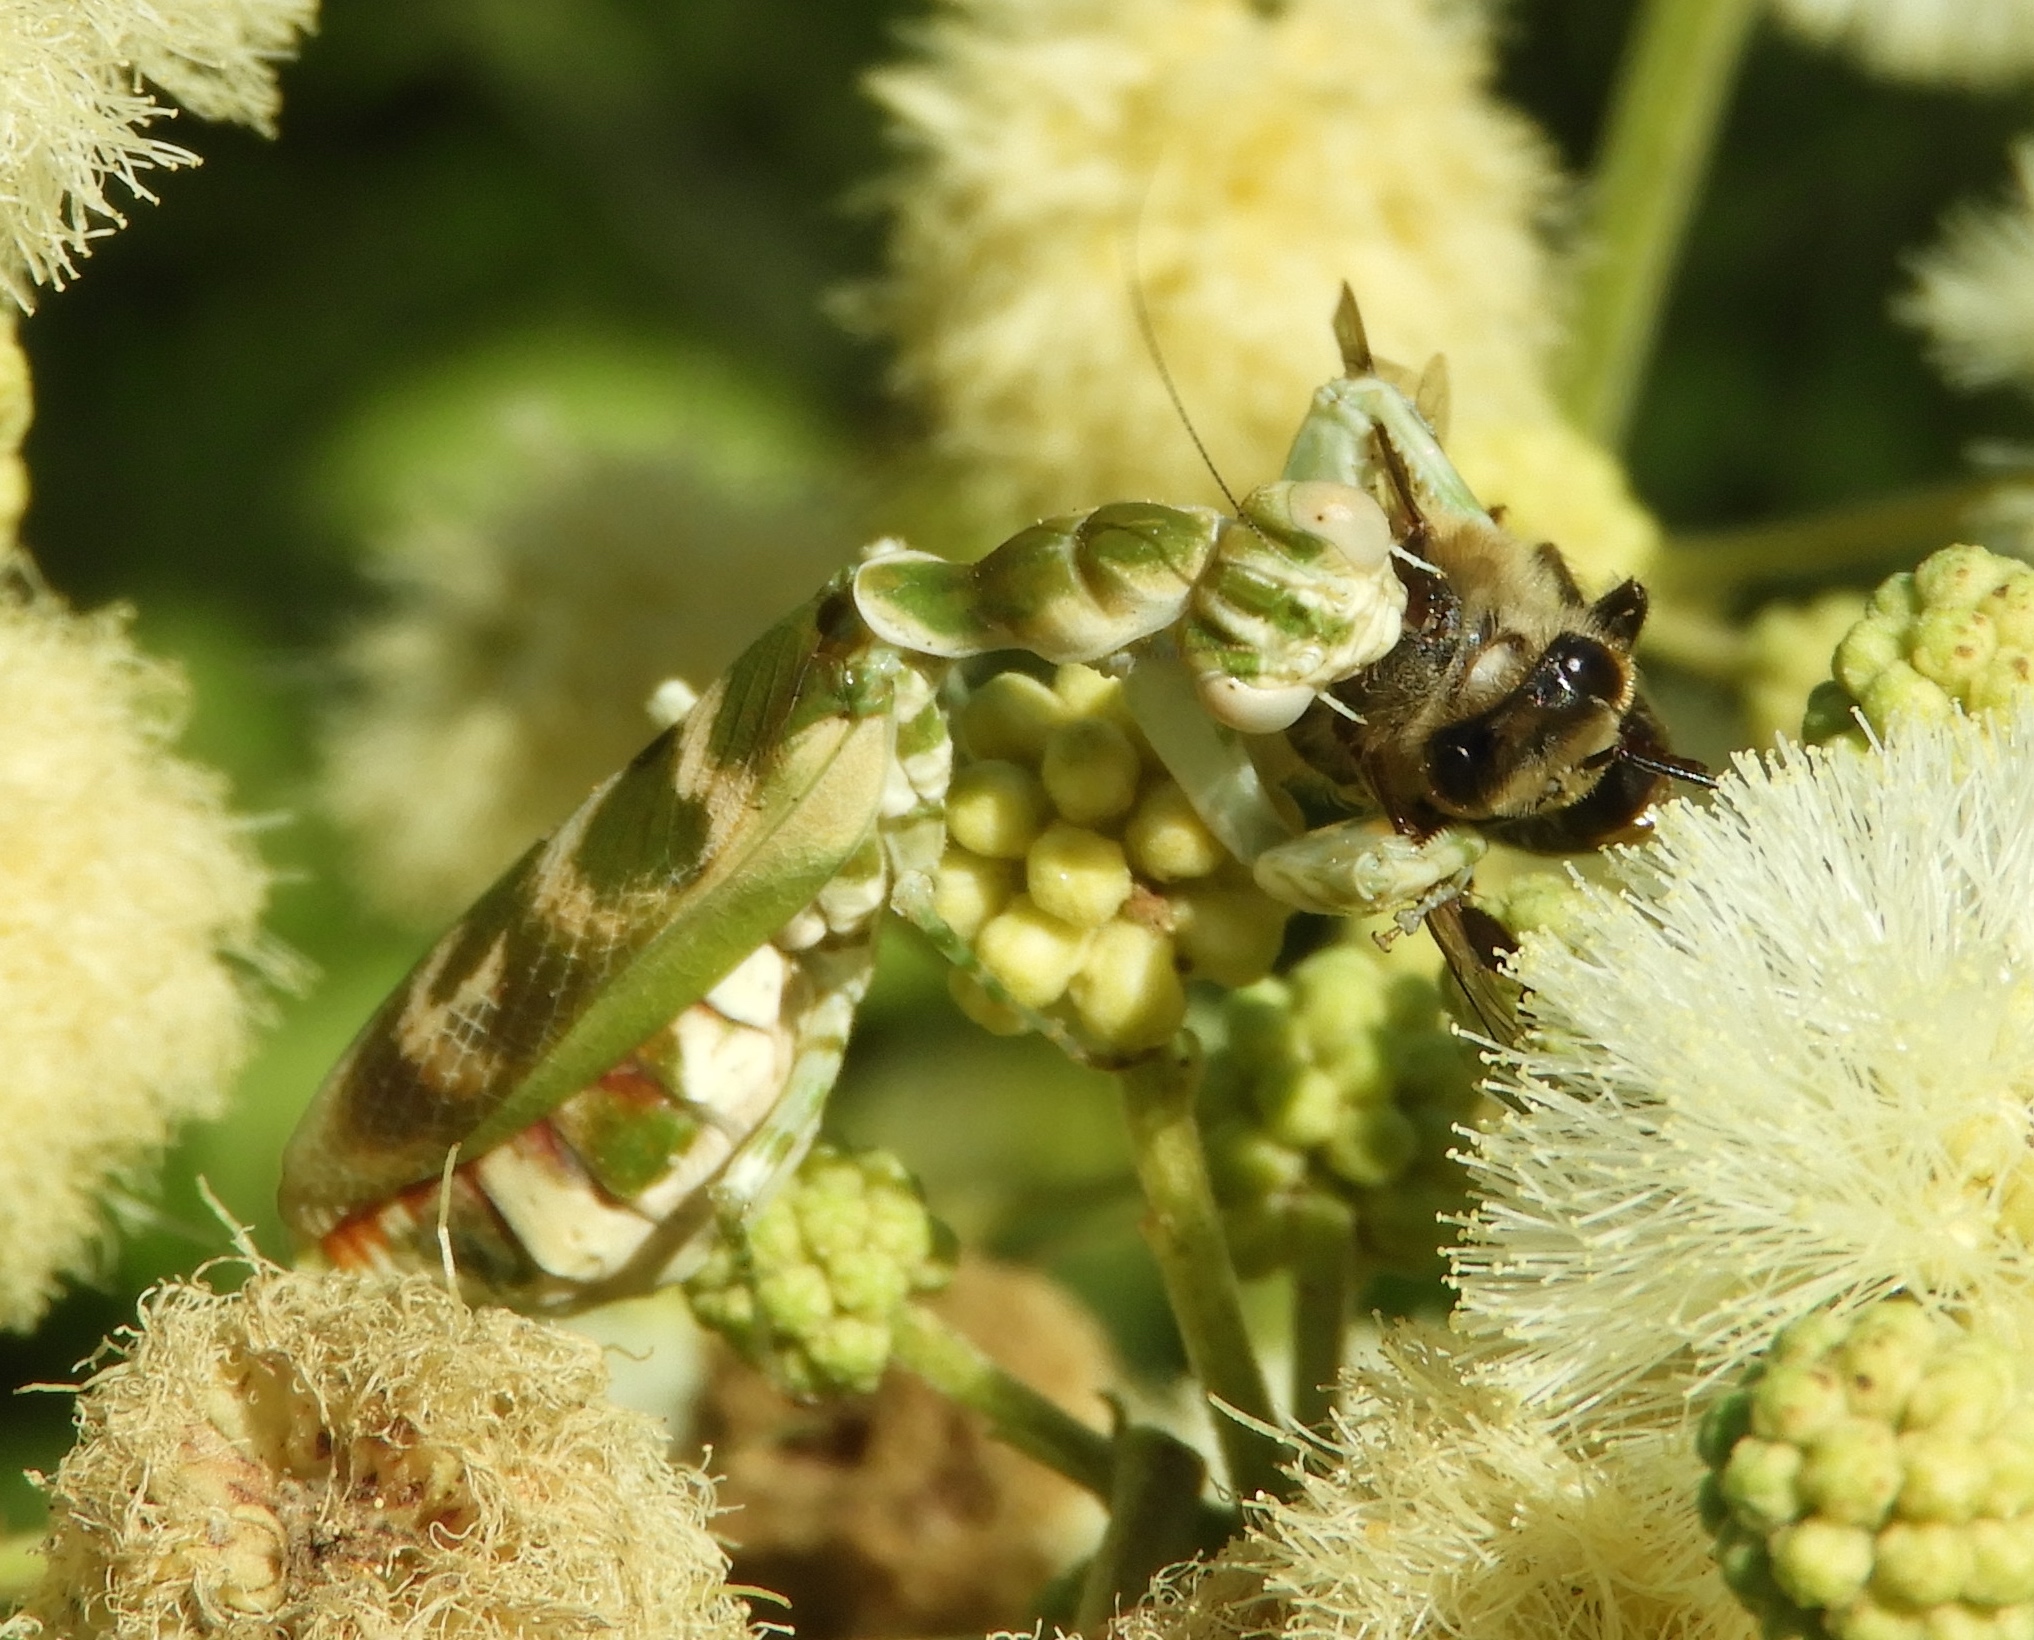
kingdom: Animalia
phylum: Arthropoda
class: Insecta
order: Mantodea
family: Acanthopidae
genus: Acontista
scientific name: Acontista mexicana
